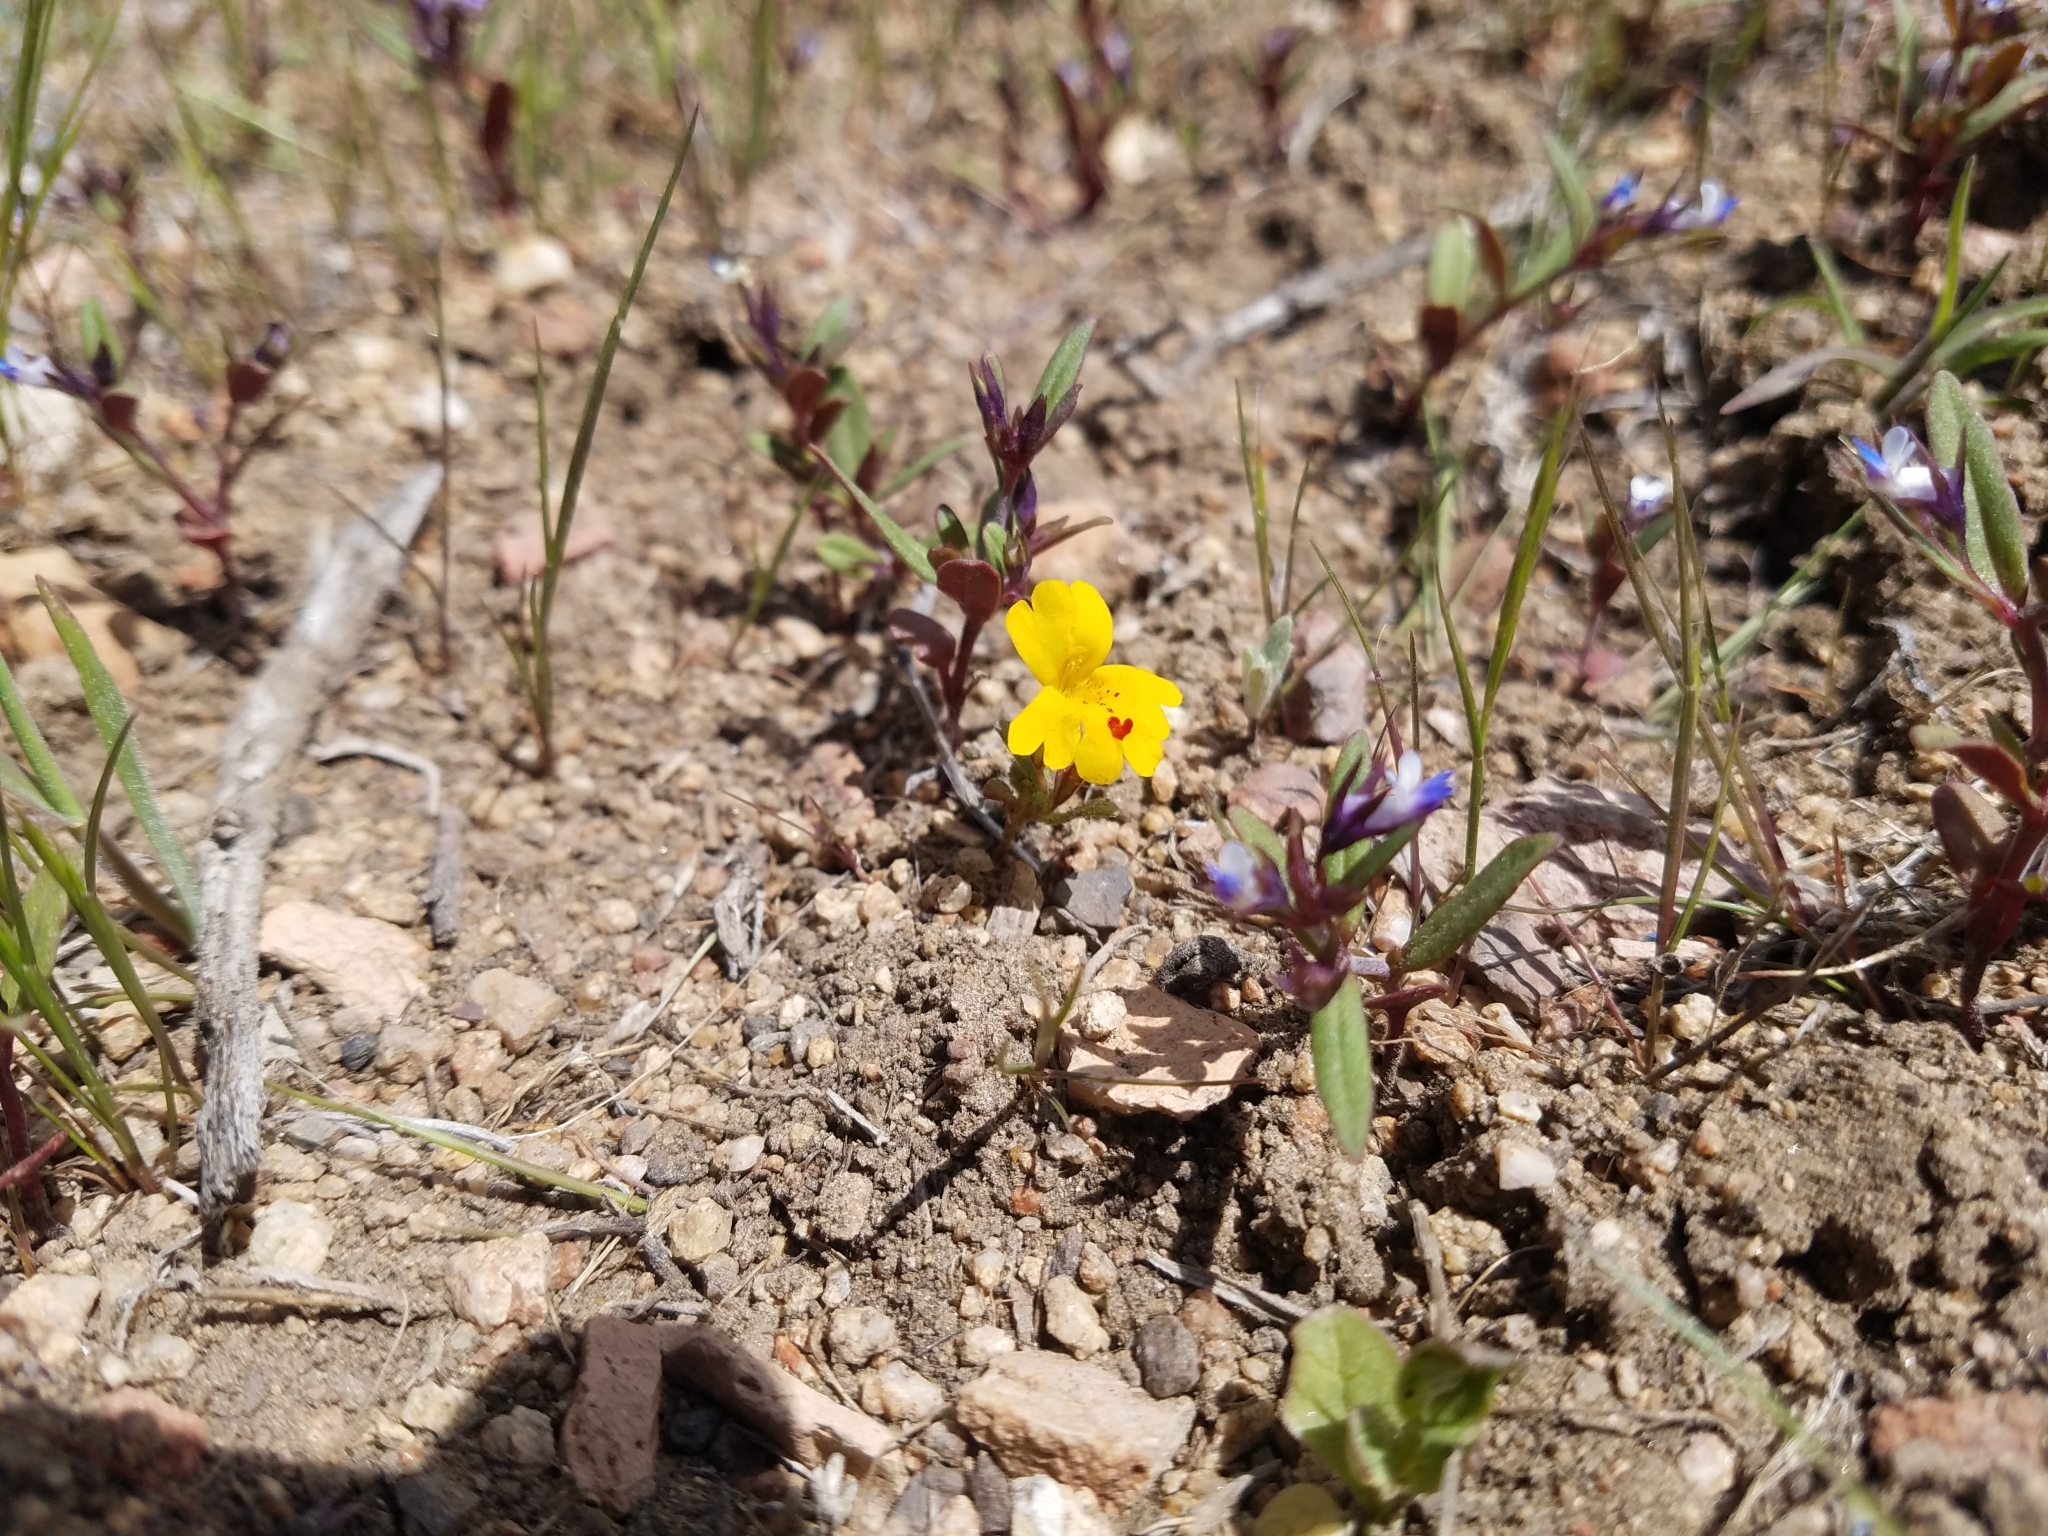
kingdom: Plantae
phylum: Tracheophyta
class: Magnoliopsida
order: Lamiales
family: Phrymaceae
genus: Erythranthe
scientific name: Erythranthe carsonensis
